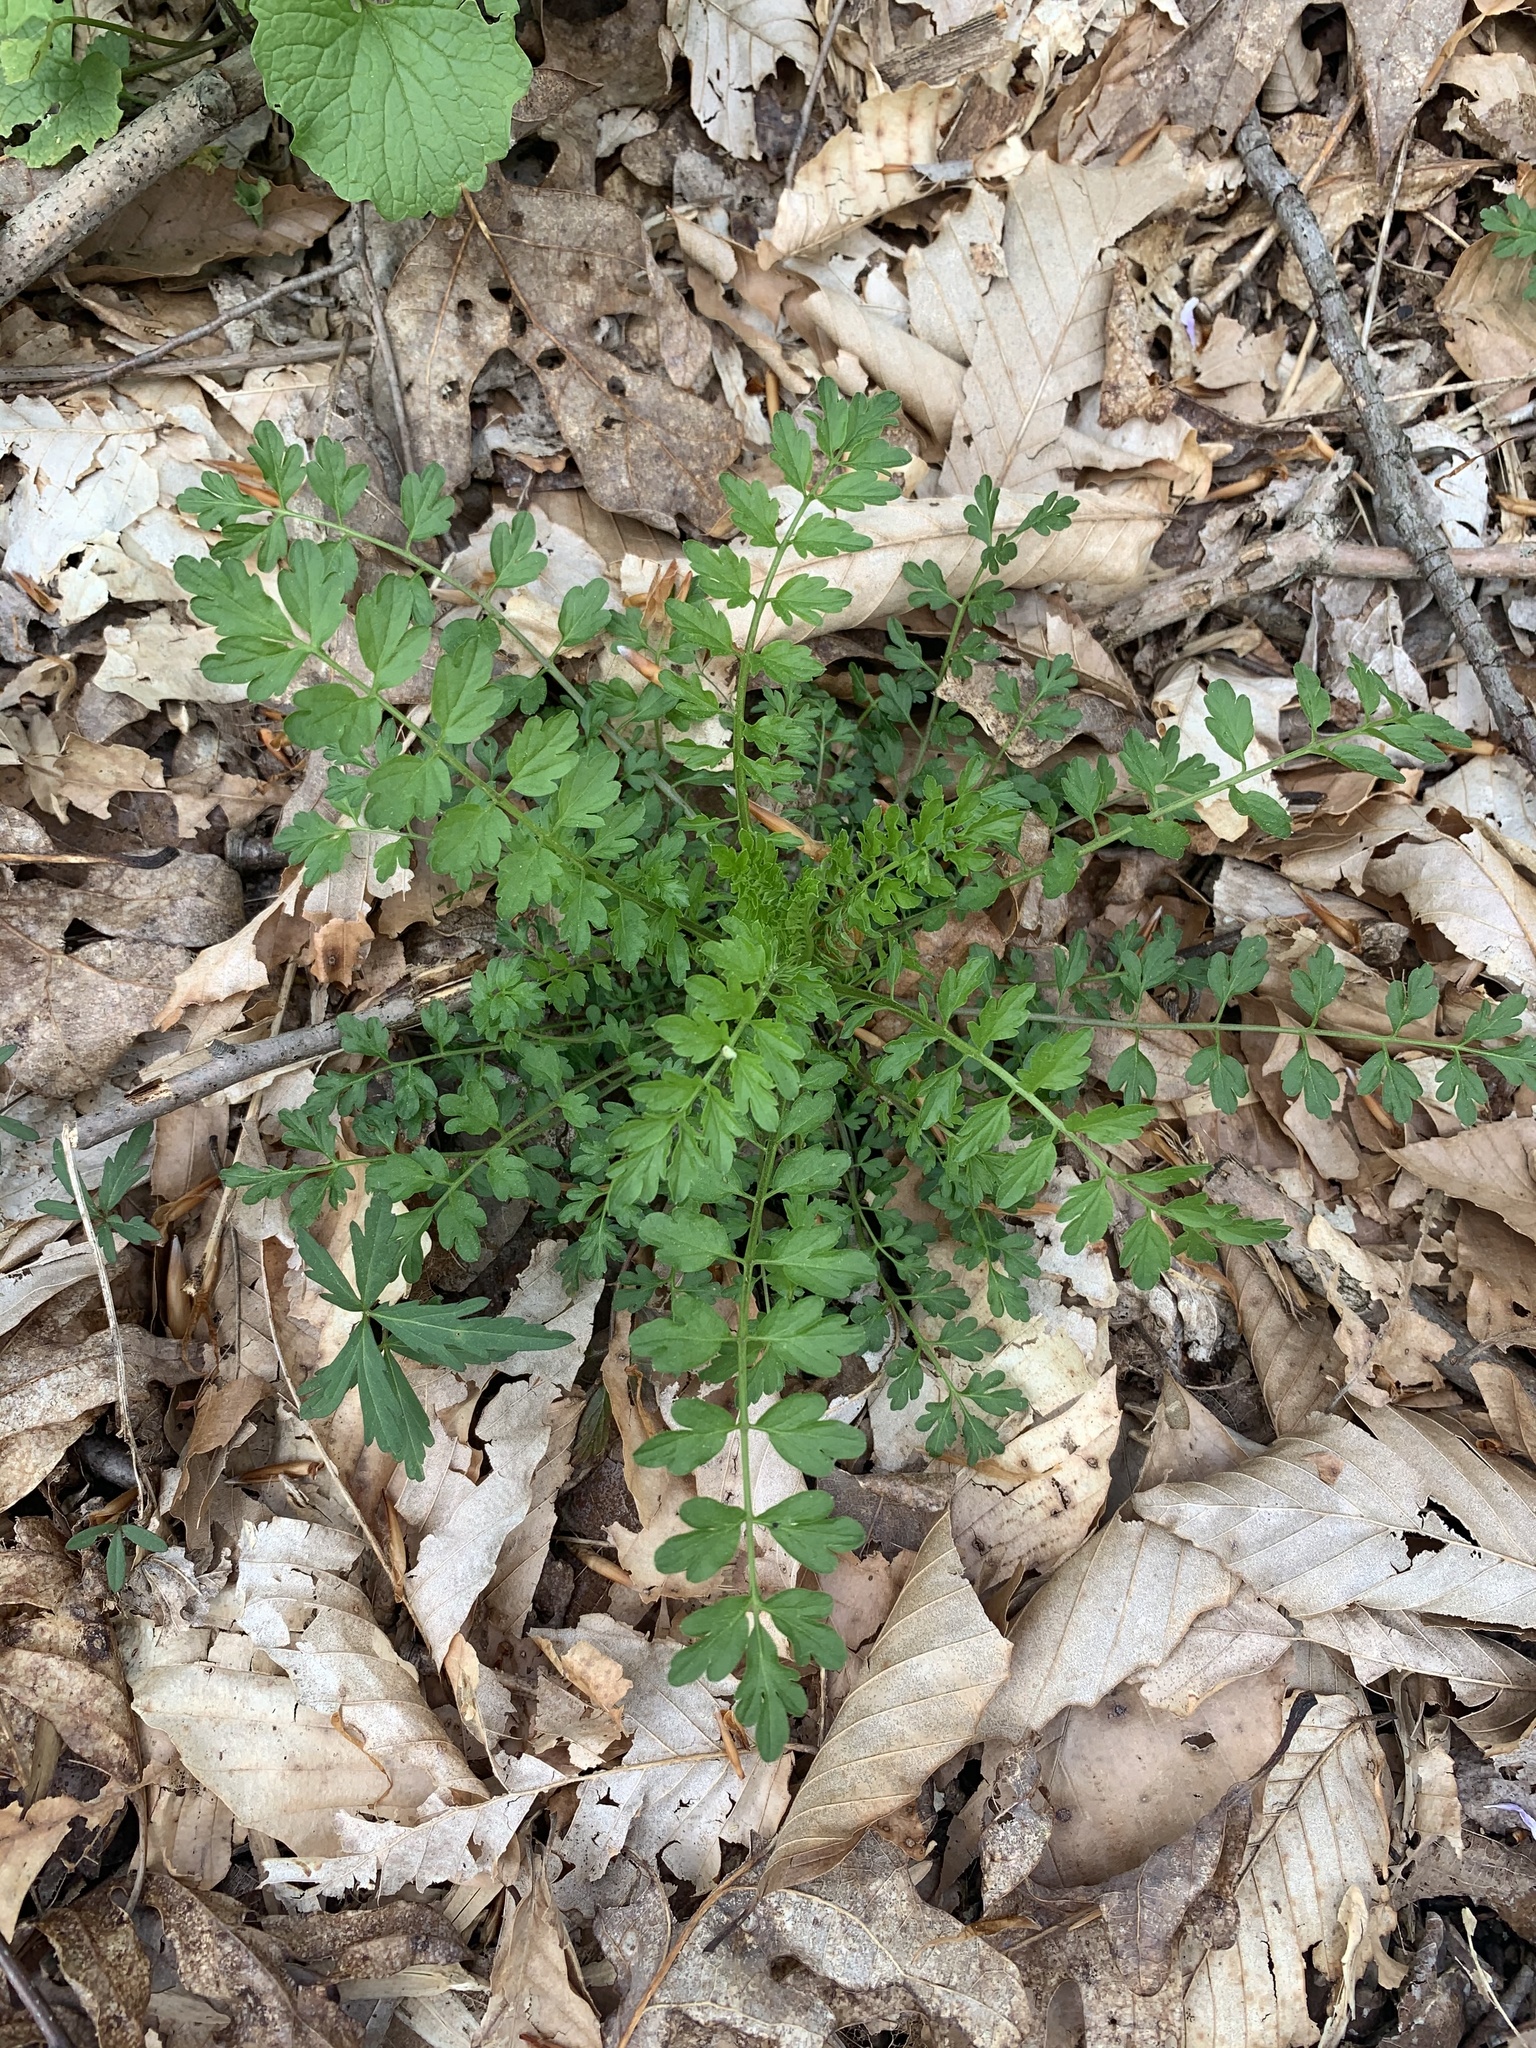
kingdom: Plantae
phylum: Tracheophyta
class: Magnoliopsida
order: Brassicales
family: Brassicaceae
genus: Cardamine
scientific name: Cardamine impatiens
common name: Narrow-leaved bitter-cress
